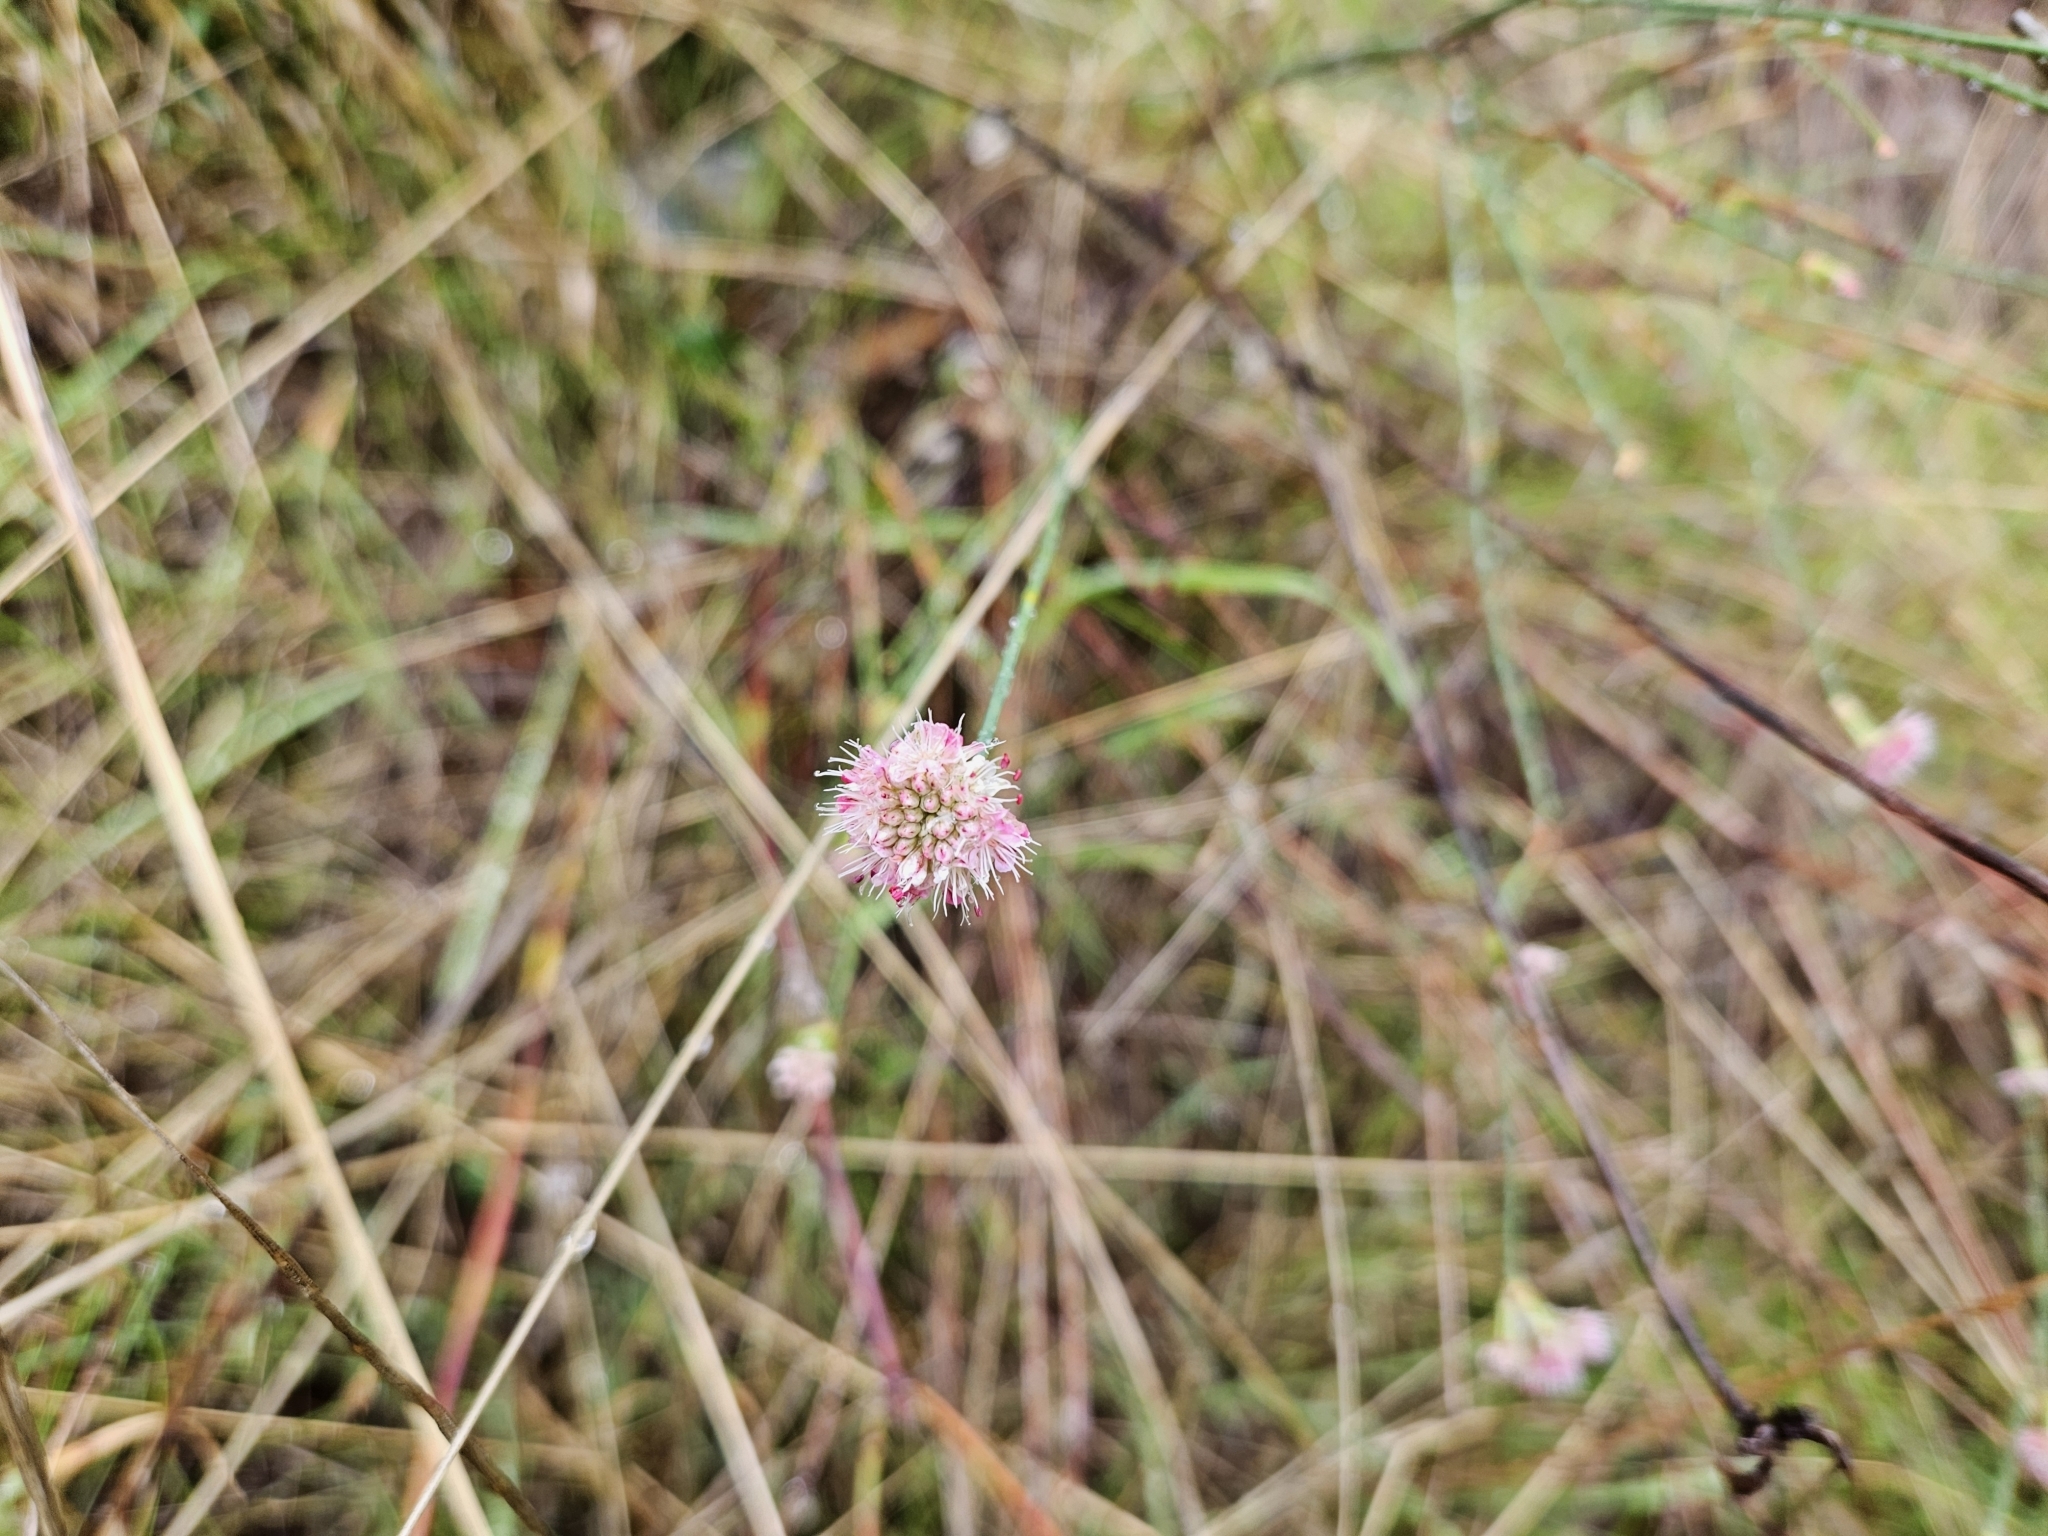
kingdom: Plantae
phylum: Tracheophyta
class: Magnoliopsida
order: Caryophyllales
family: Polygonaceae
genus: Eriogonum
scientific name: Eriogonum nudum
